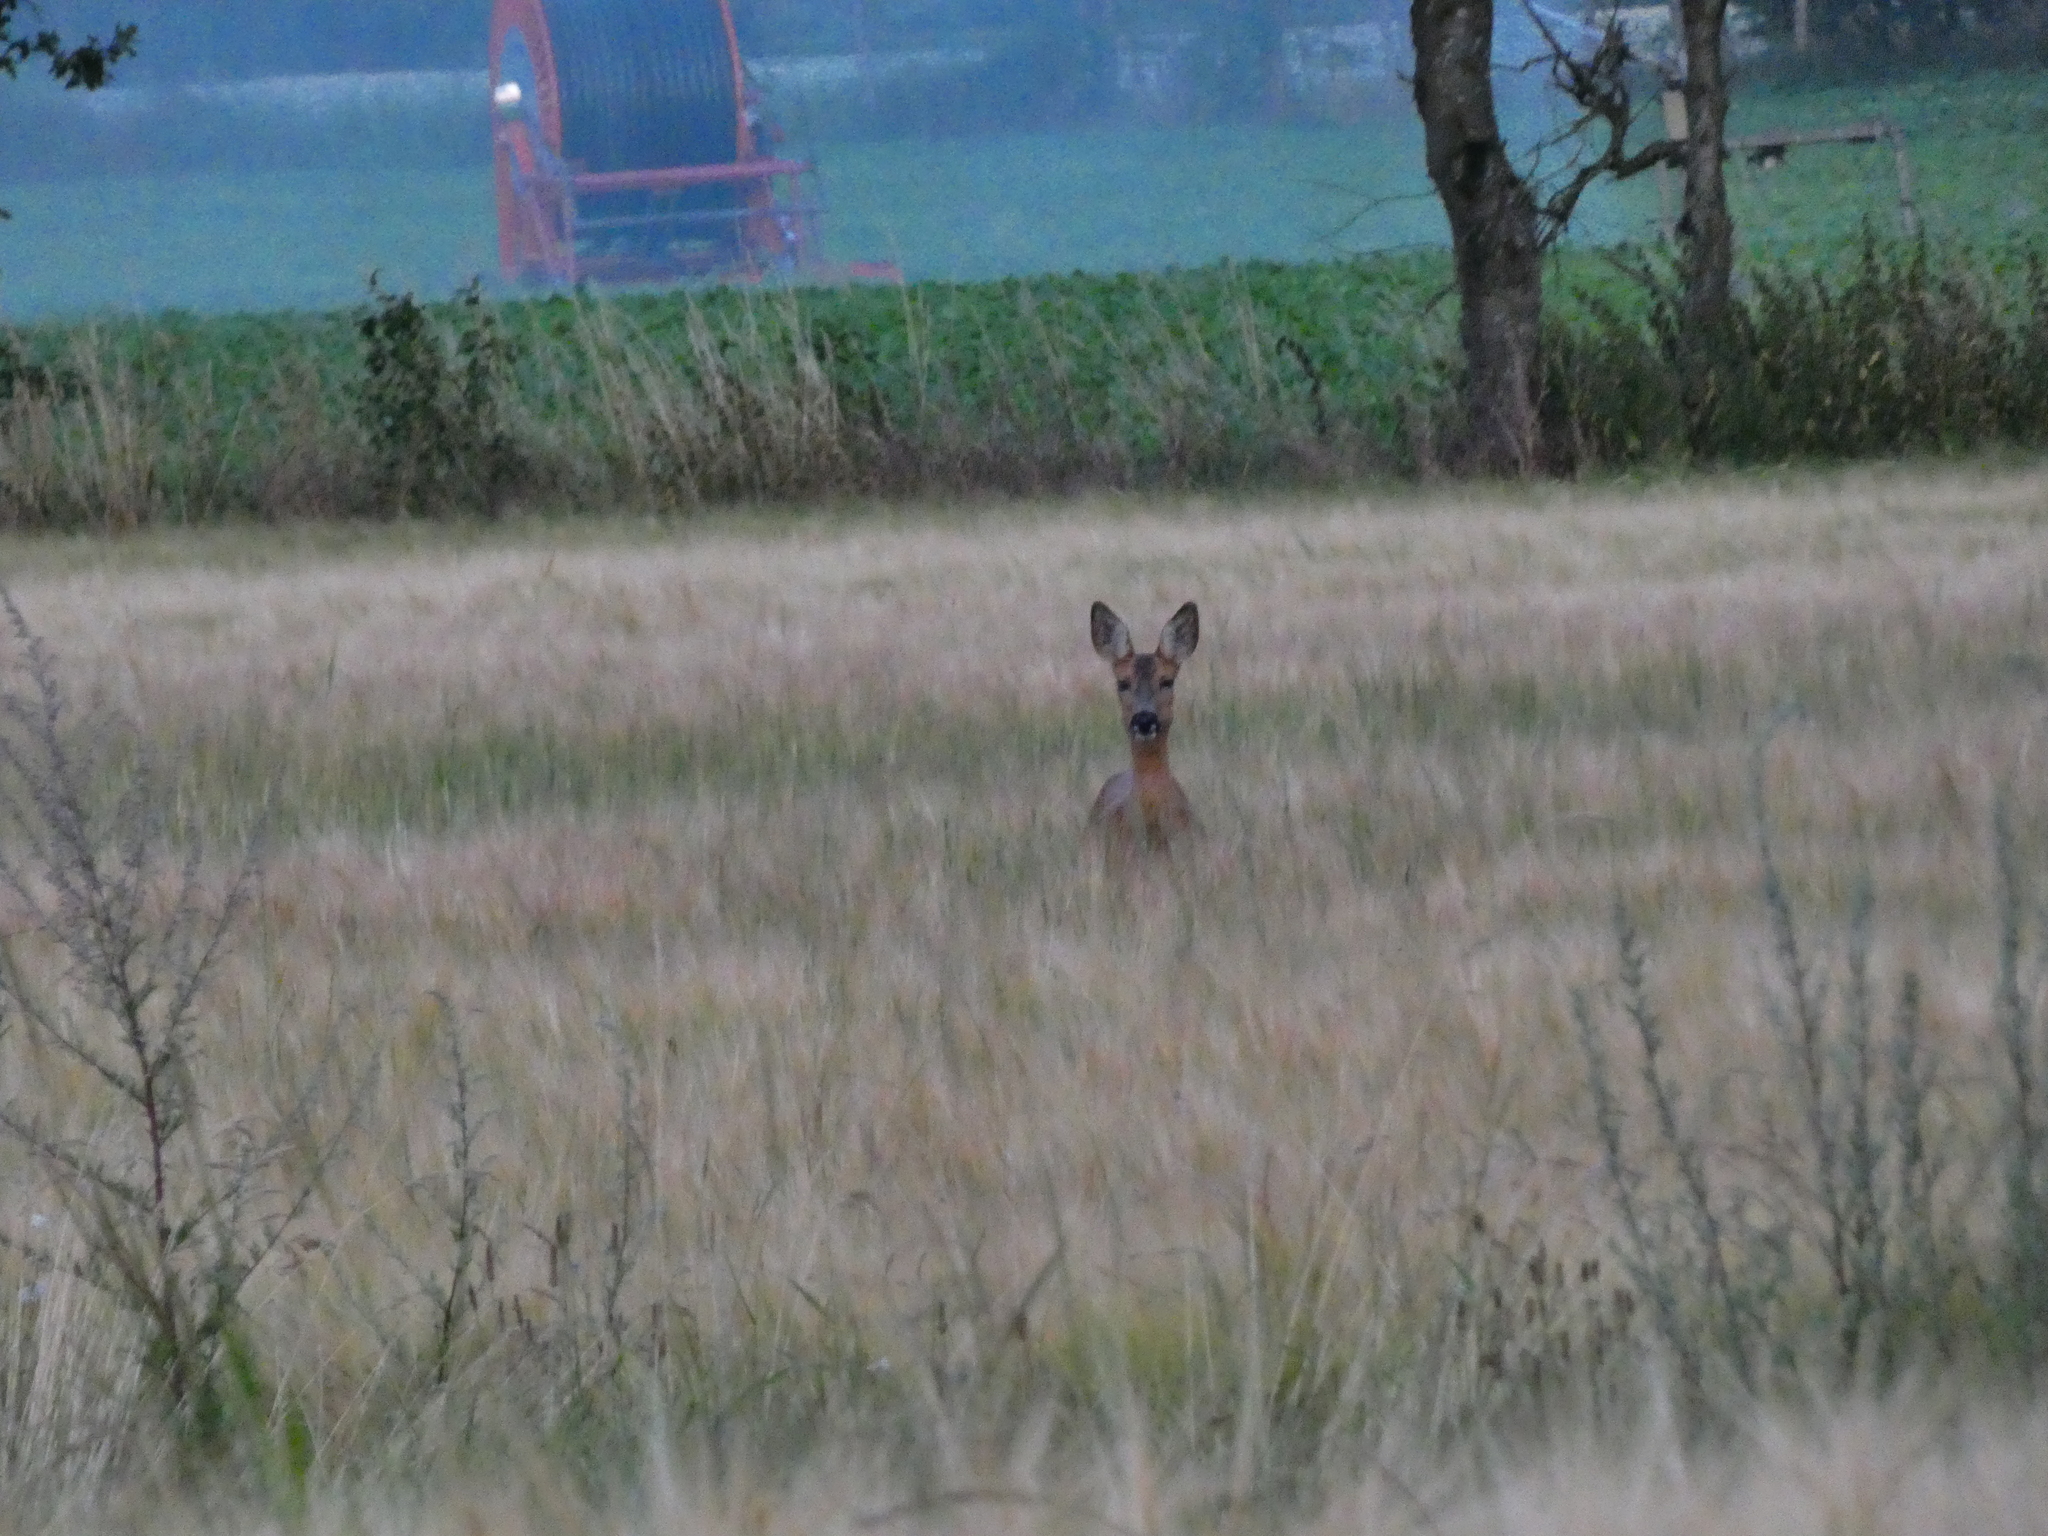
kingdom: Animalia
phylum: Chordata
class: Mammalia
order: Artiodactyla
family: Cervidae
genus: Capreolus
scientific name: Capreolus capreolus
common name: Western roe deer
